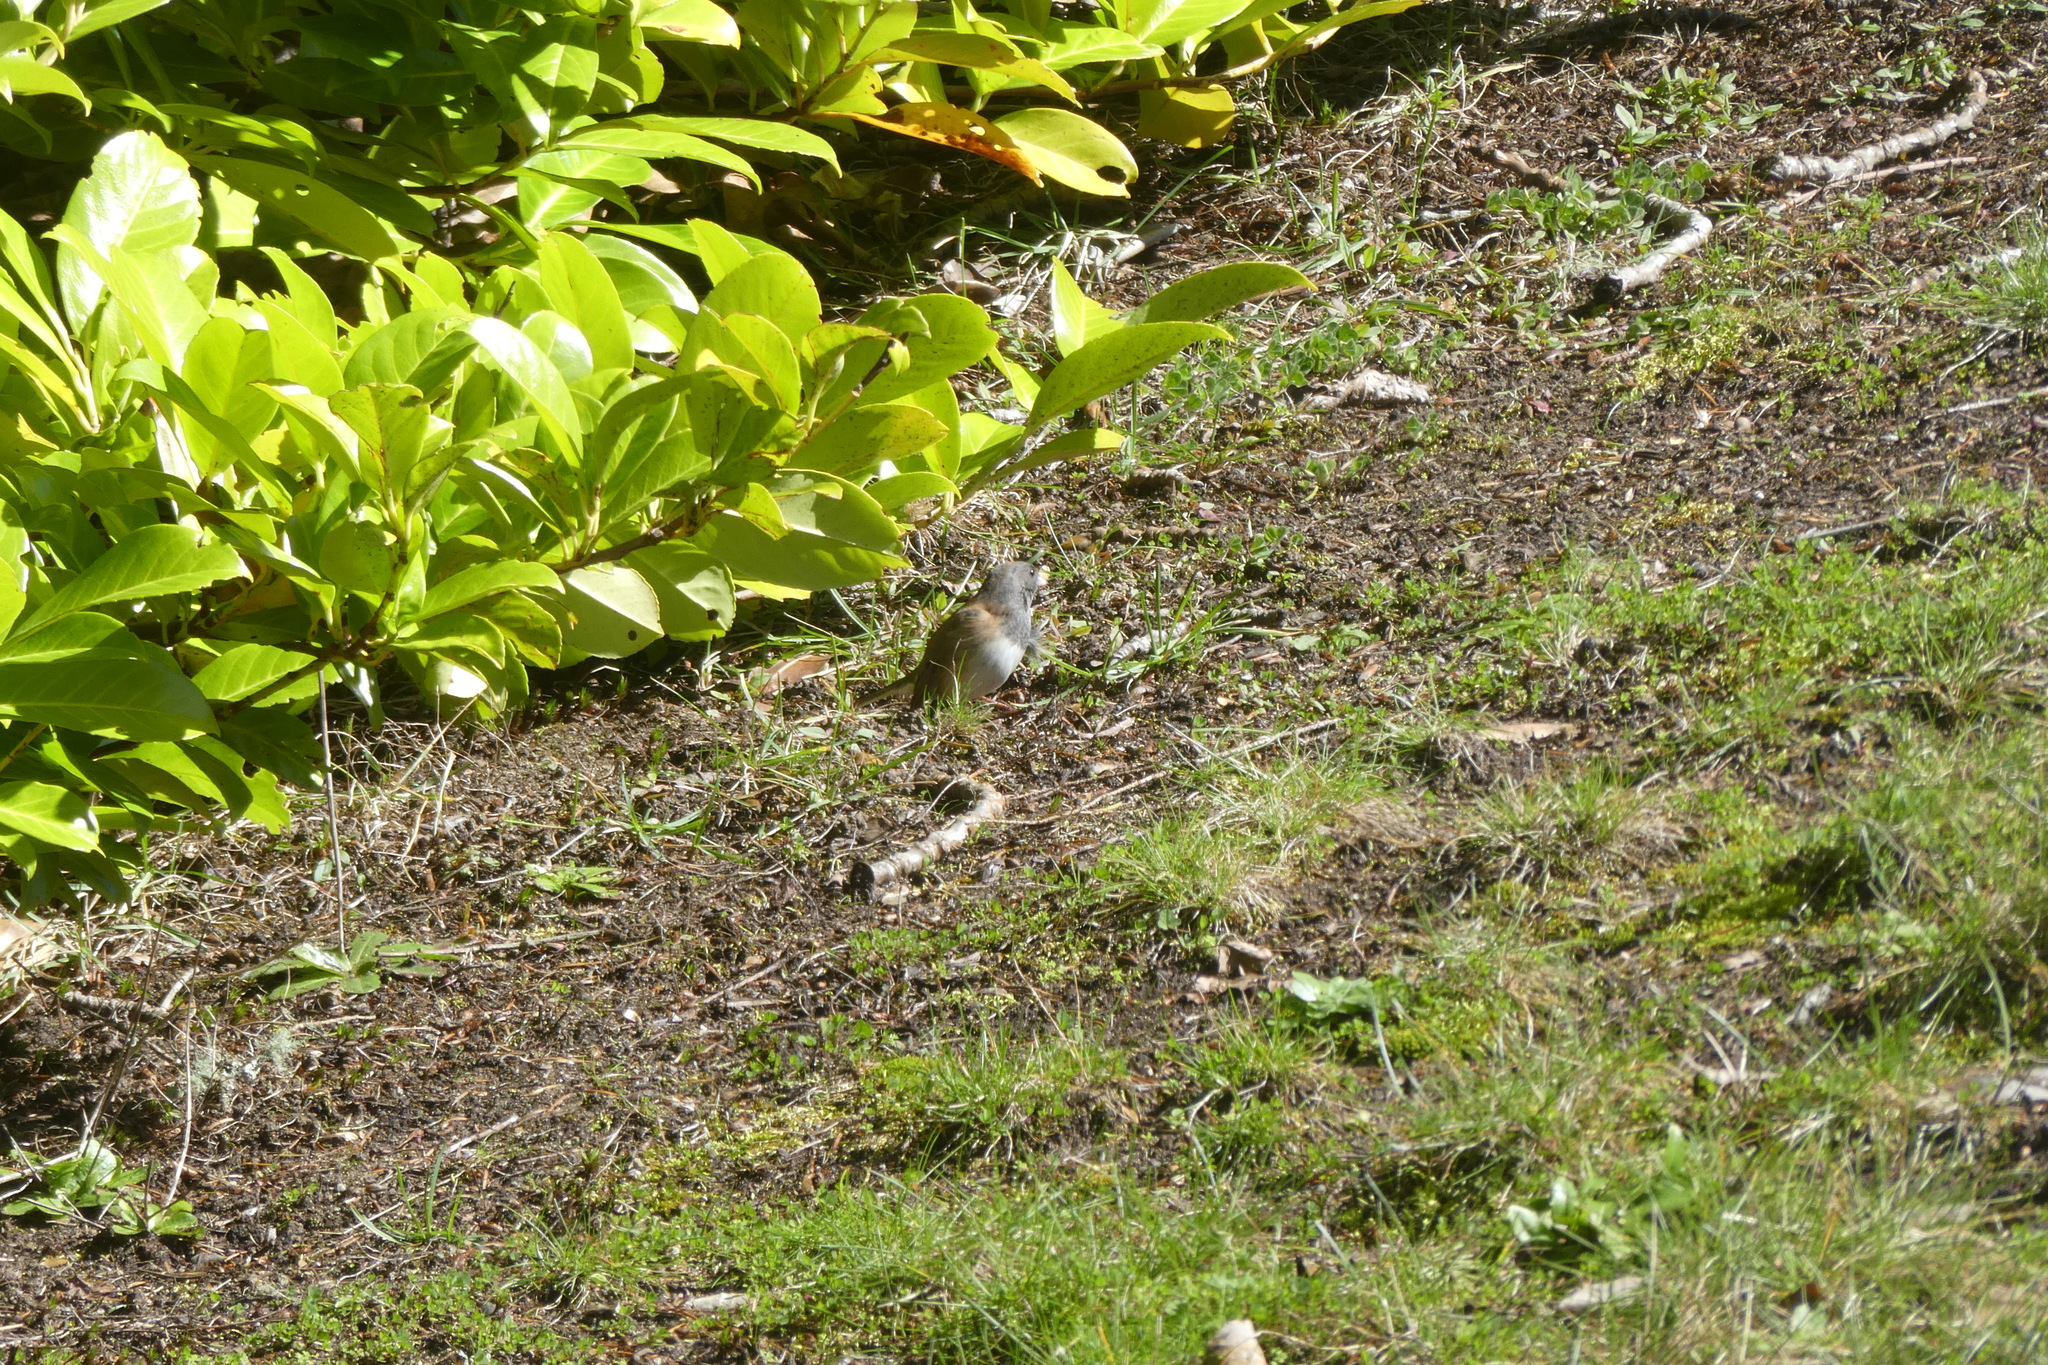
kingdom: Animalia
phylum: Chordata
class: Aves
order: Passeriformes
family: Passerellidae
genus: Junco
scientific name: Junco hyemalis
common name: Dark-eyed junco
